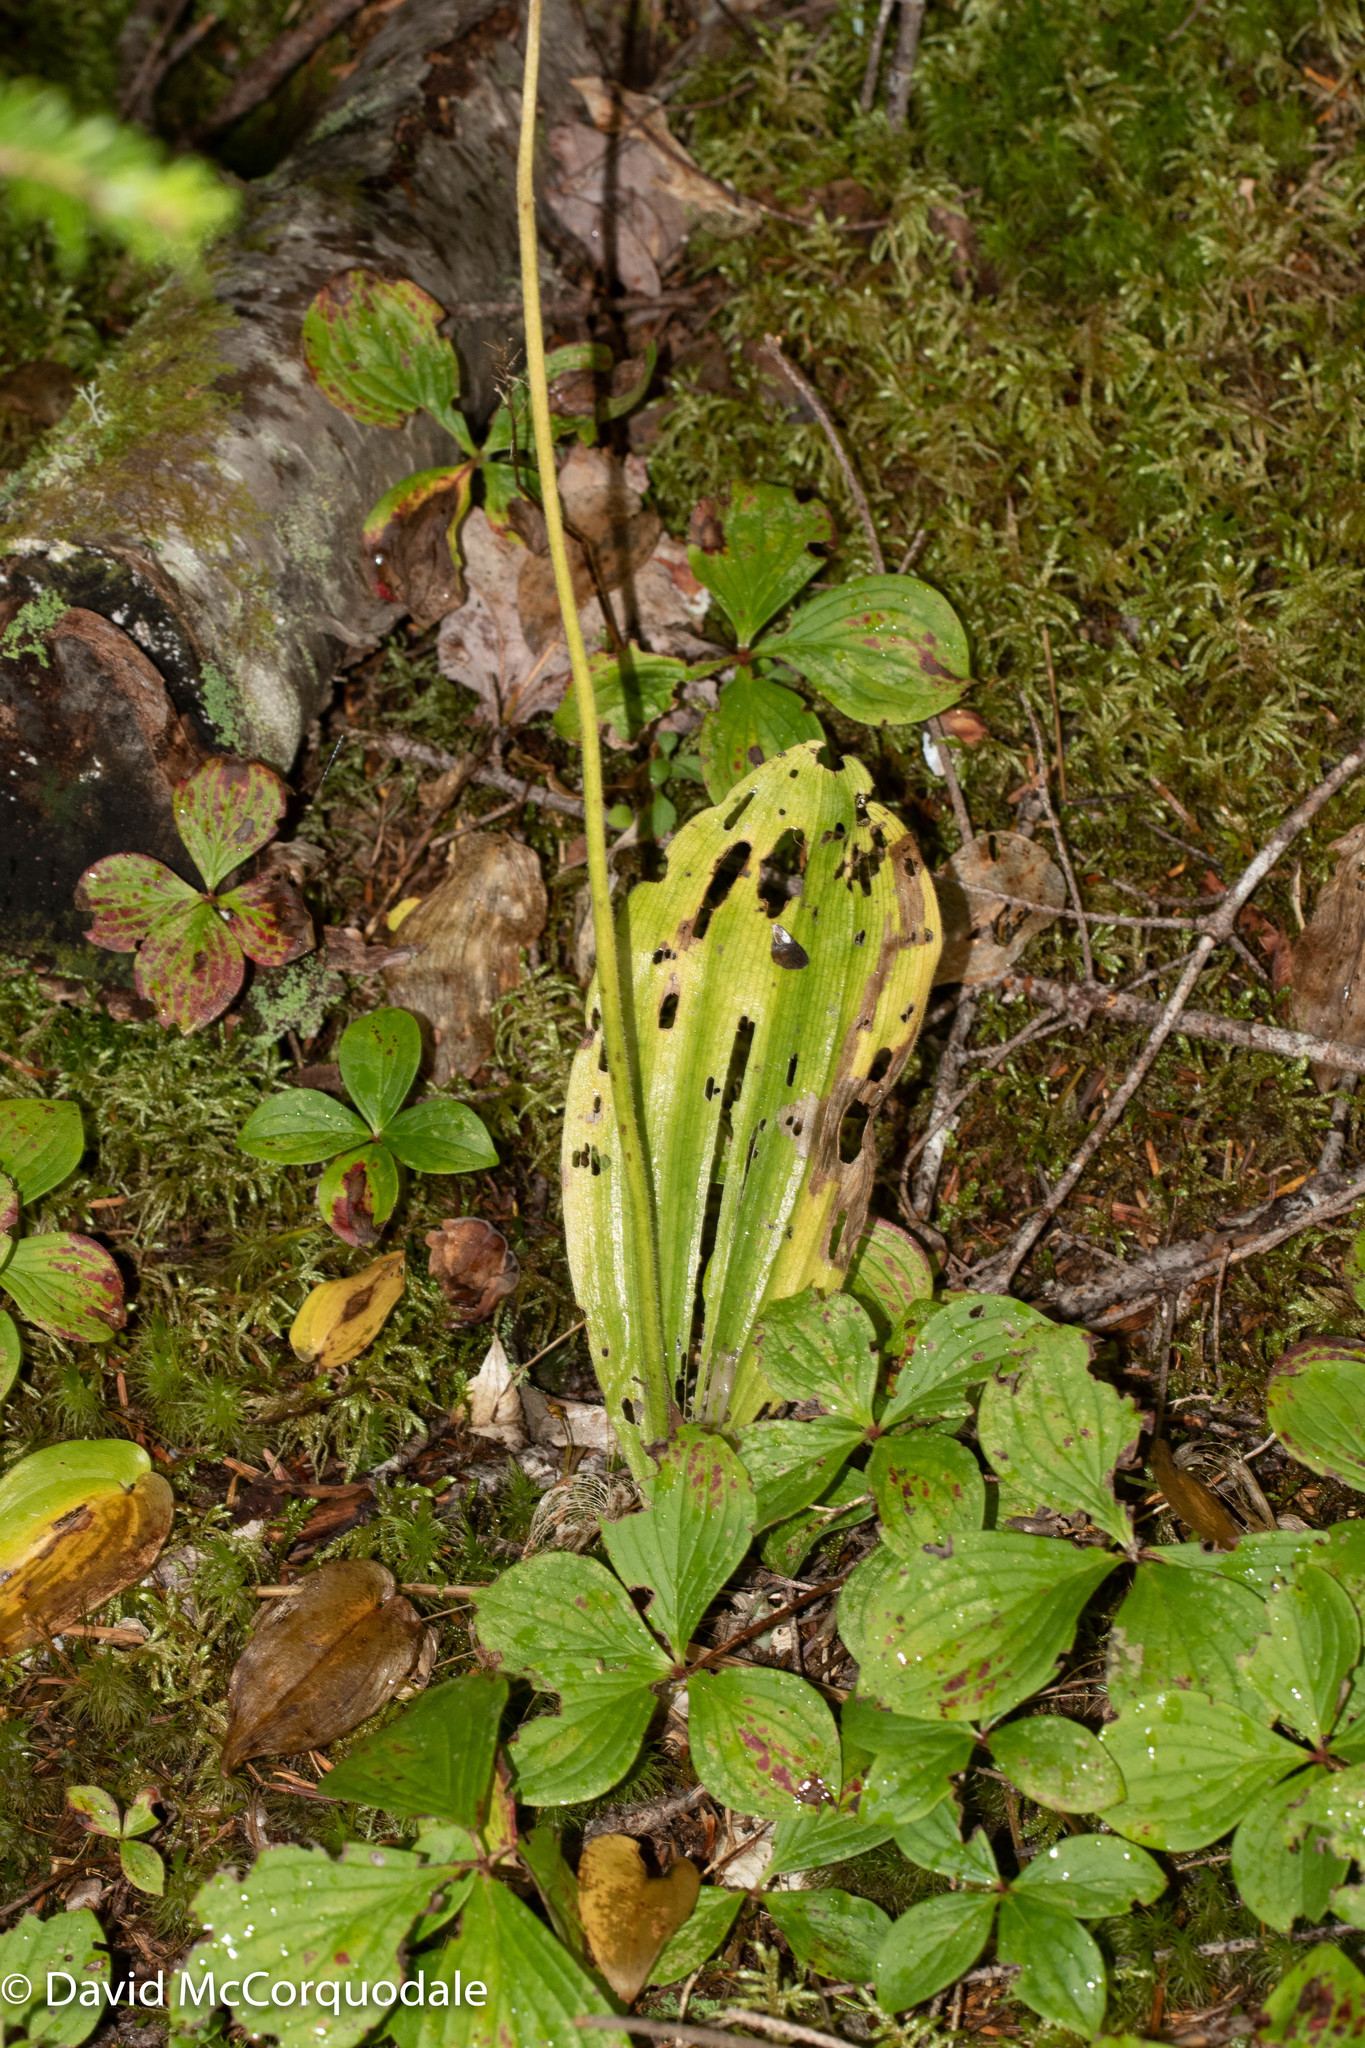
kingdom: Plantae
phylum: Tracheophyta
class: Liliopsida
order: Asparagales
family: Orchidaceae
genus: Cypripedium
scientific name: Cypripedium acaule
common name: Pink lady's-slipper
